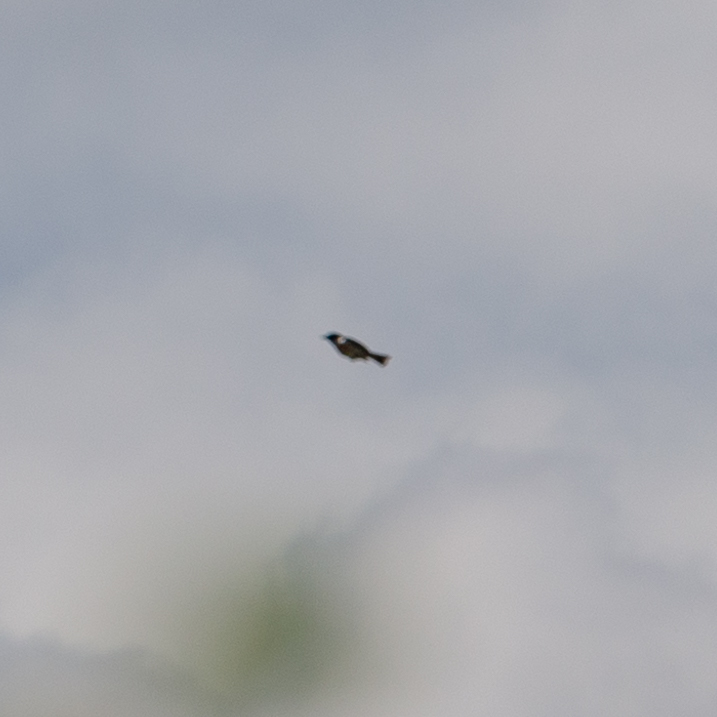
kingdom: Animalia
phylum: Chordata
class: Aves
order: Passeriformes
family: Muscicapidae
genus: Saxicola
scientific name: Saxicola rubicola
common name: European stonechat
